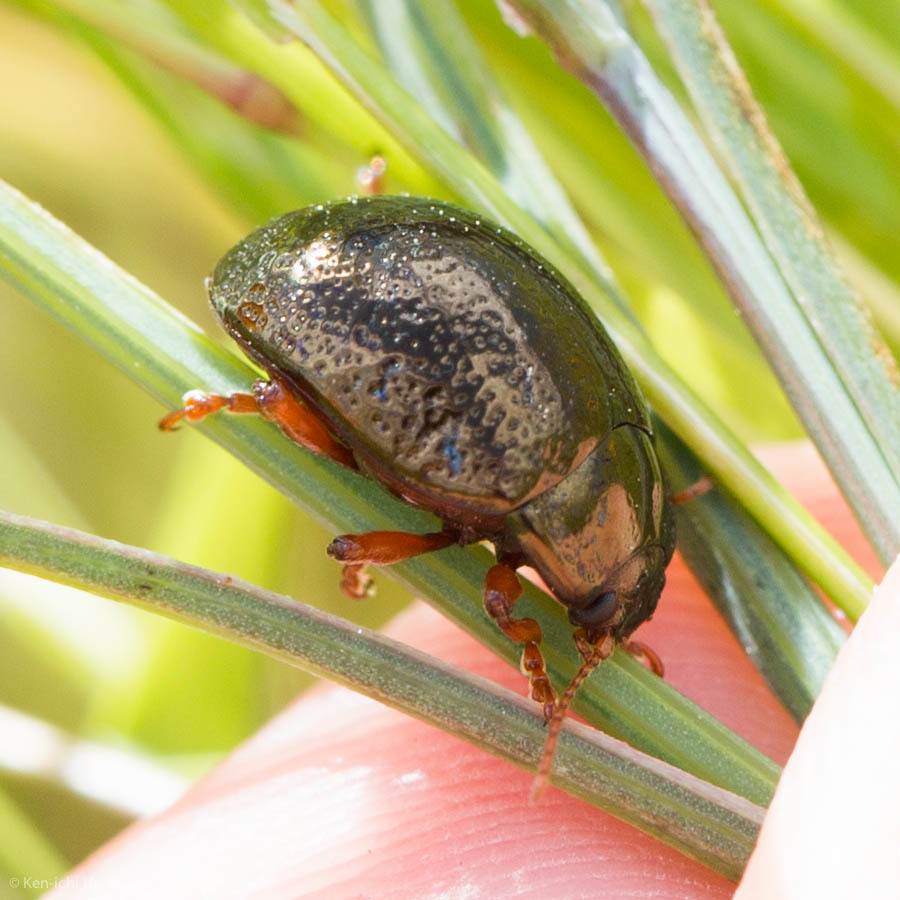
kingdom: Animalia
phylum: Arthropoda
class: Insecta
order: Coleoptera
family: Chrysomelidae
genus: Chrysolina
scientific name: Chrysolina bankii
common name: Leaf beetle
